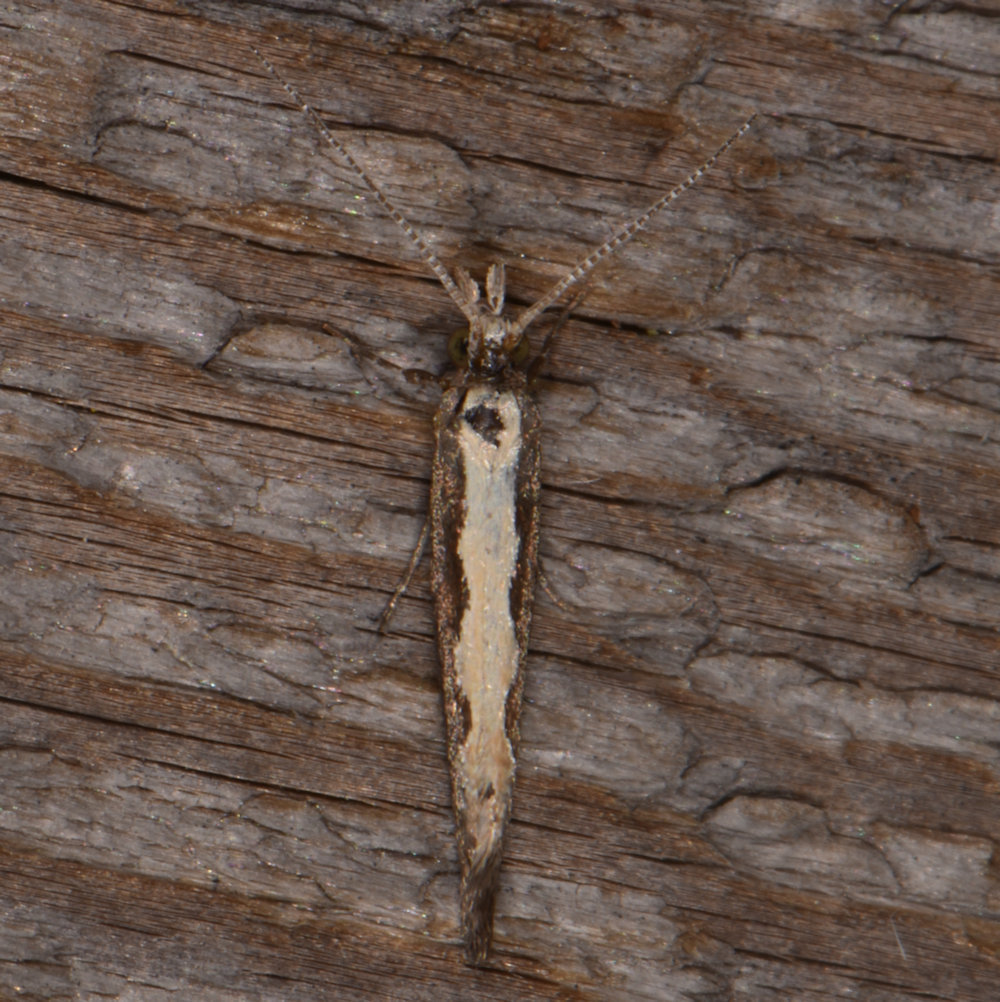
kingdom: Animalia
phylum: Arthropoda
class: Insecta
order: Lepidoptera
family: Plutellidae
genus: Plutella
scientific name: Plutella xylostella
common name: Diamond-back moth
